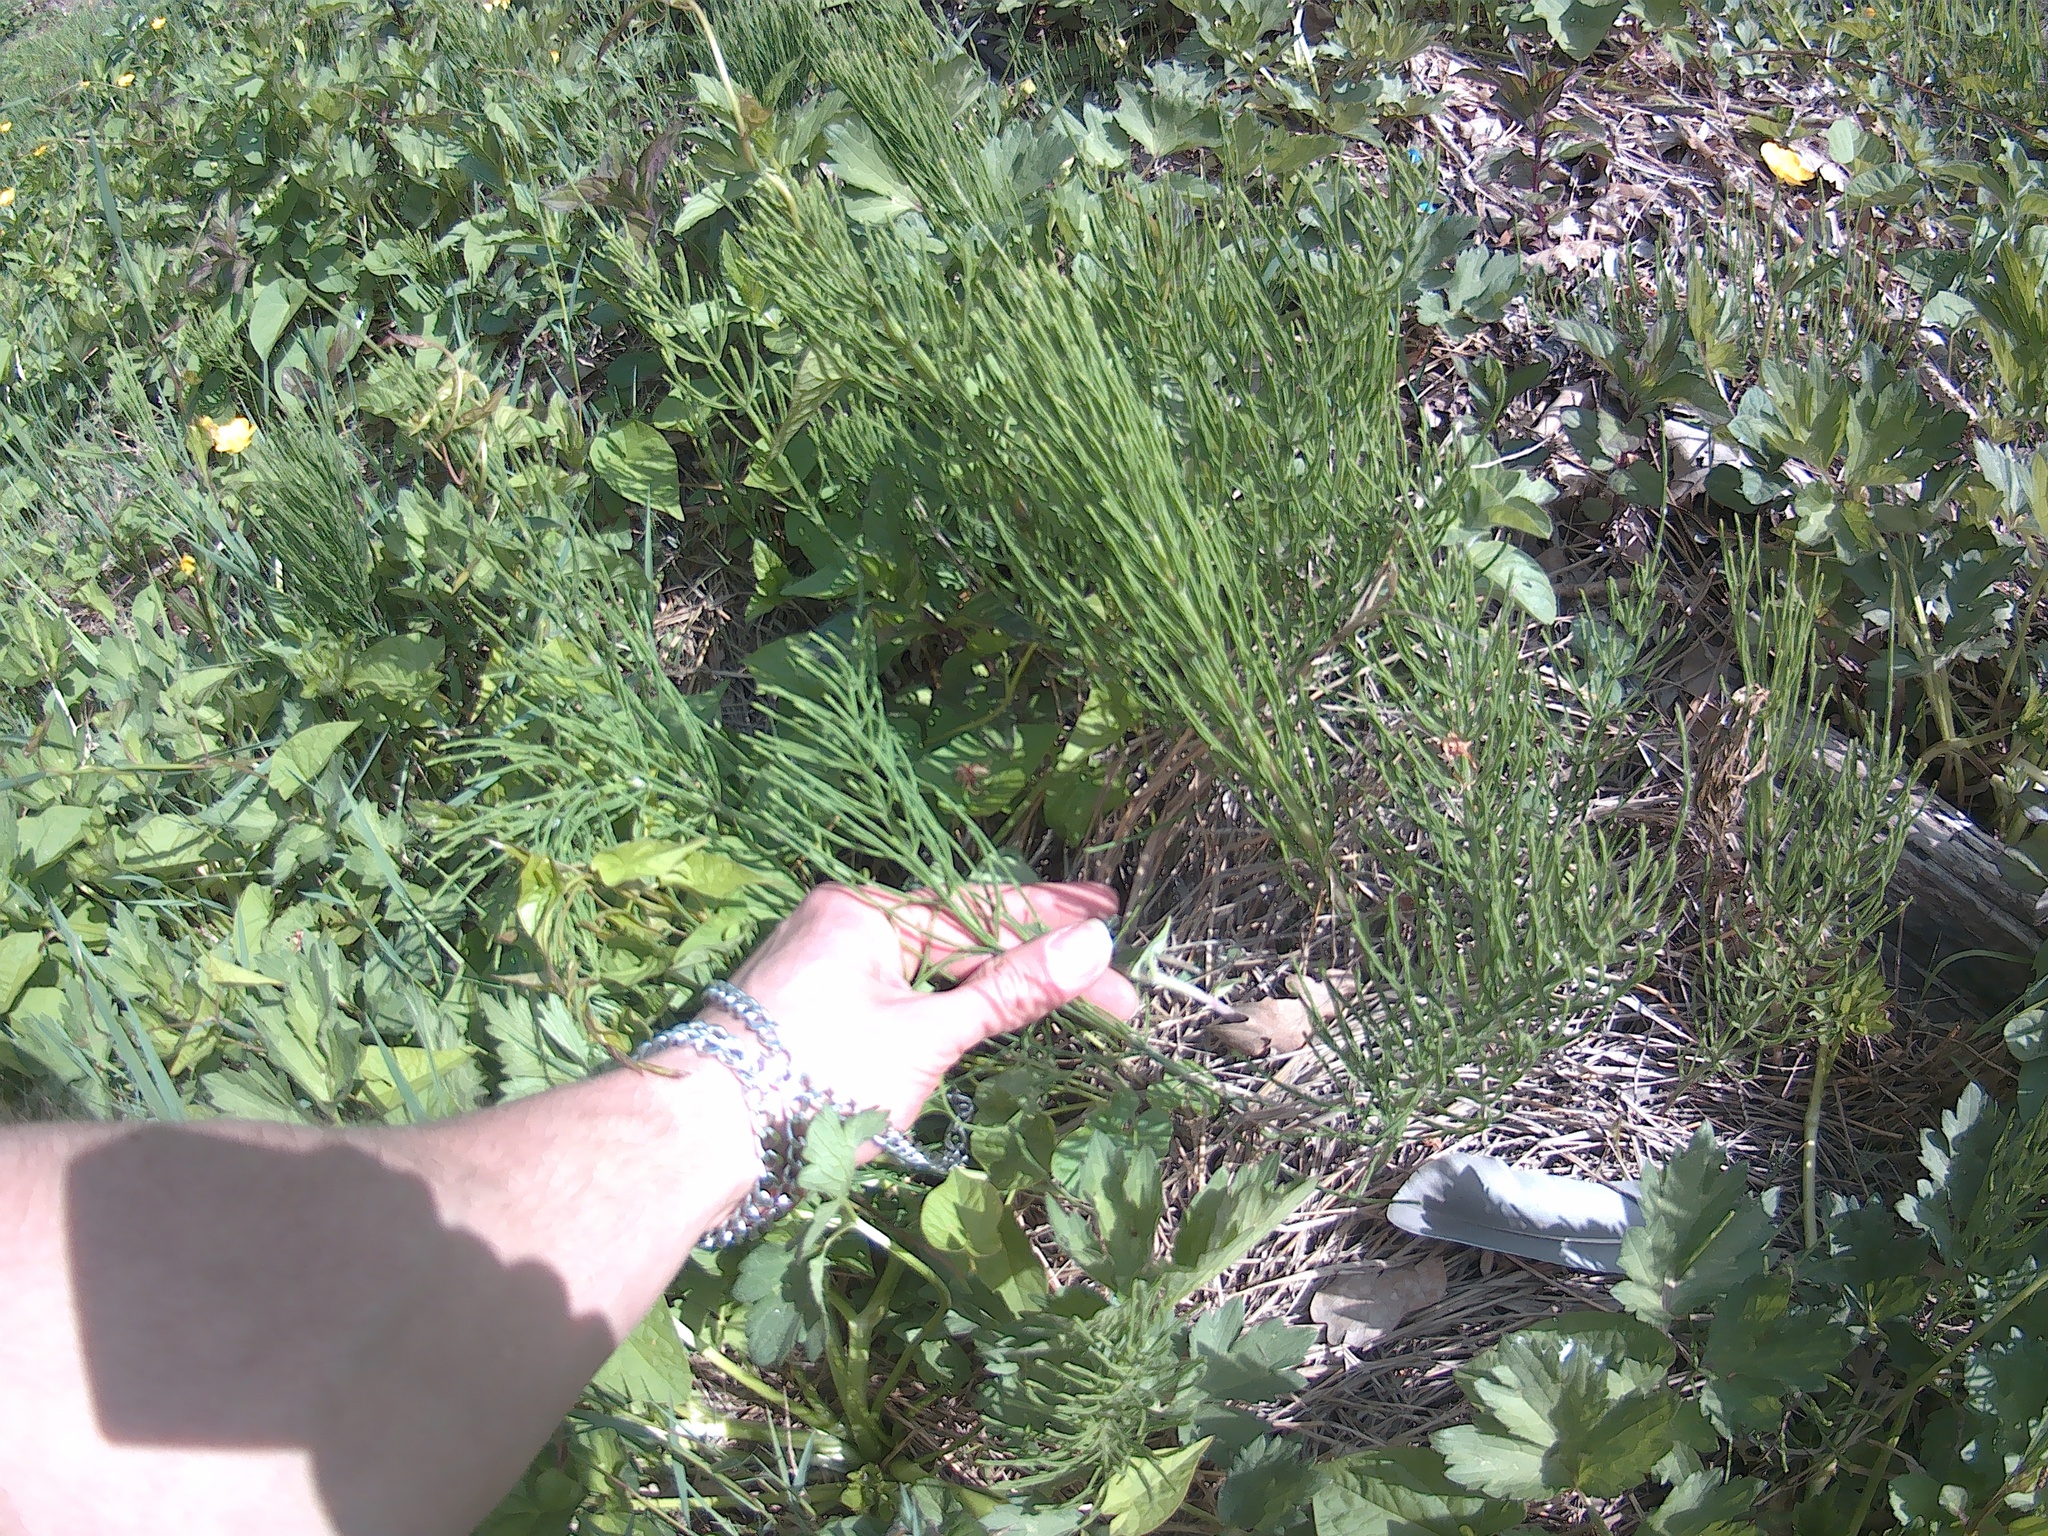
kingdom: Plantae
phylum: Tracheophyta
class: Polypodiopsida
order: Equisetales
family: Equisetaceae
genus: Equisetum
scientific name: Equisetum arvense
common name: Field horsetail
